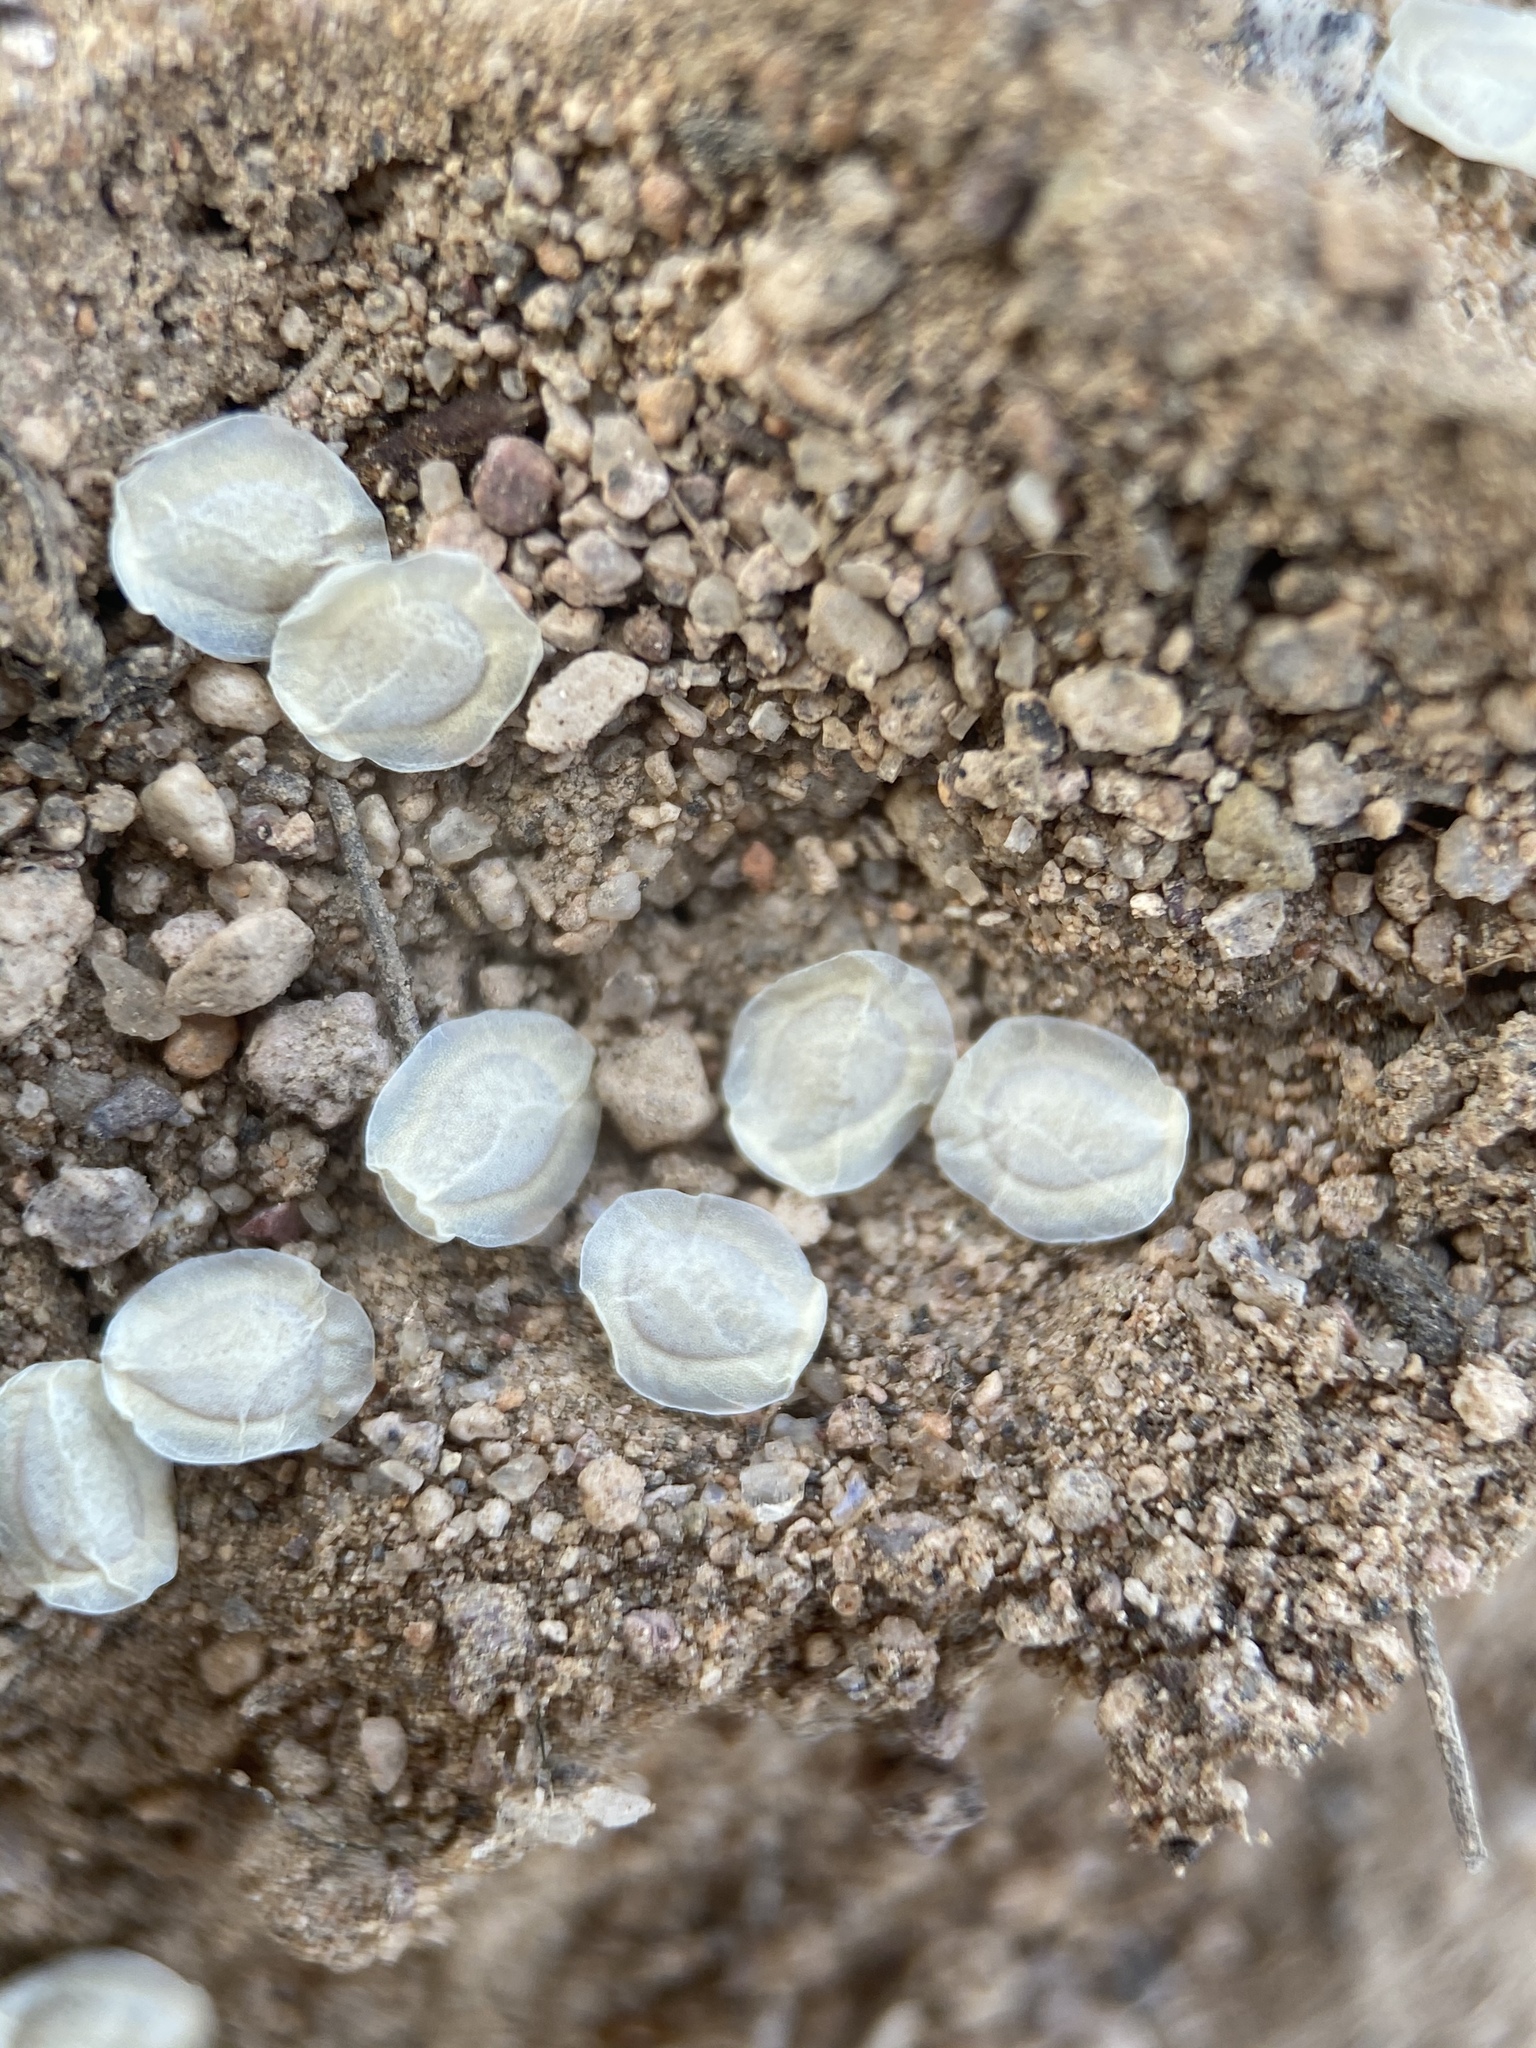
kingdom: Plantae
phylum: Tracheophyta
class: Magnoliopsida
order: Cornales
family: Loasaceae
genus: Mentzelia
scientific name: Mentzelia integra
